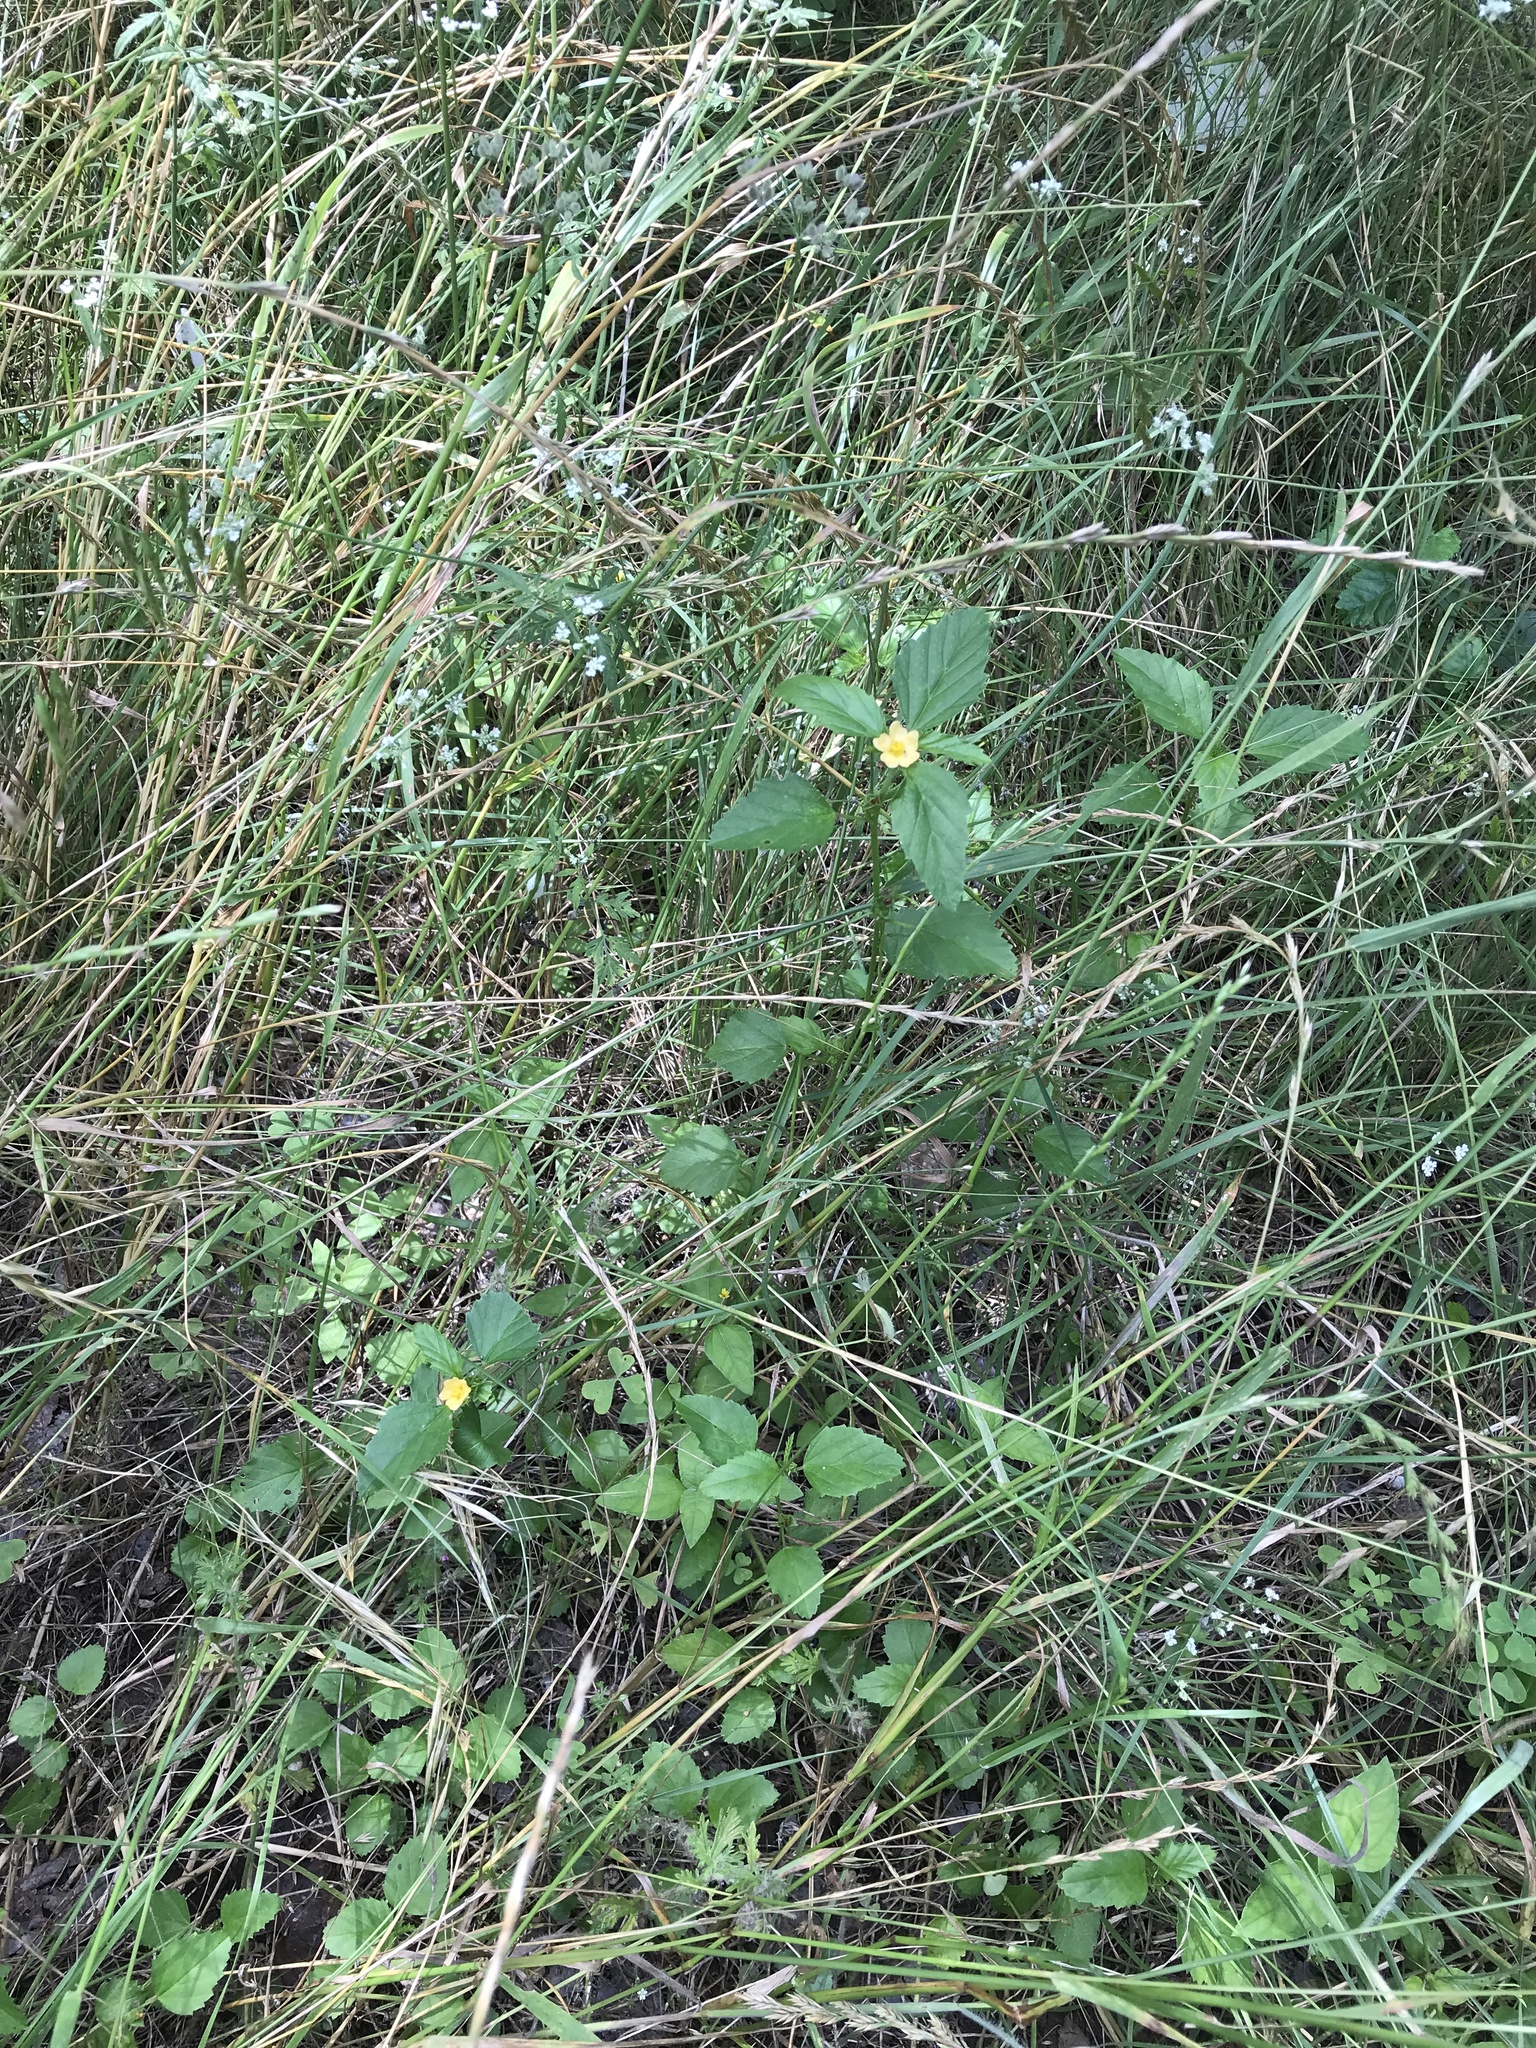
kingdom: Plantae
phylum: Tracheophyta
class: Magnoliopsida
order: Malvales
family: Malvaceae
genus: Malvastrum
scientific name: Malvastrum coromandelianum
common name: Threelobe false mallow
